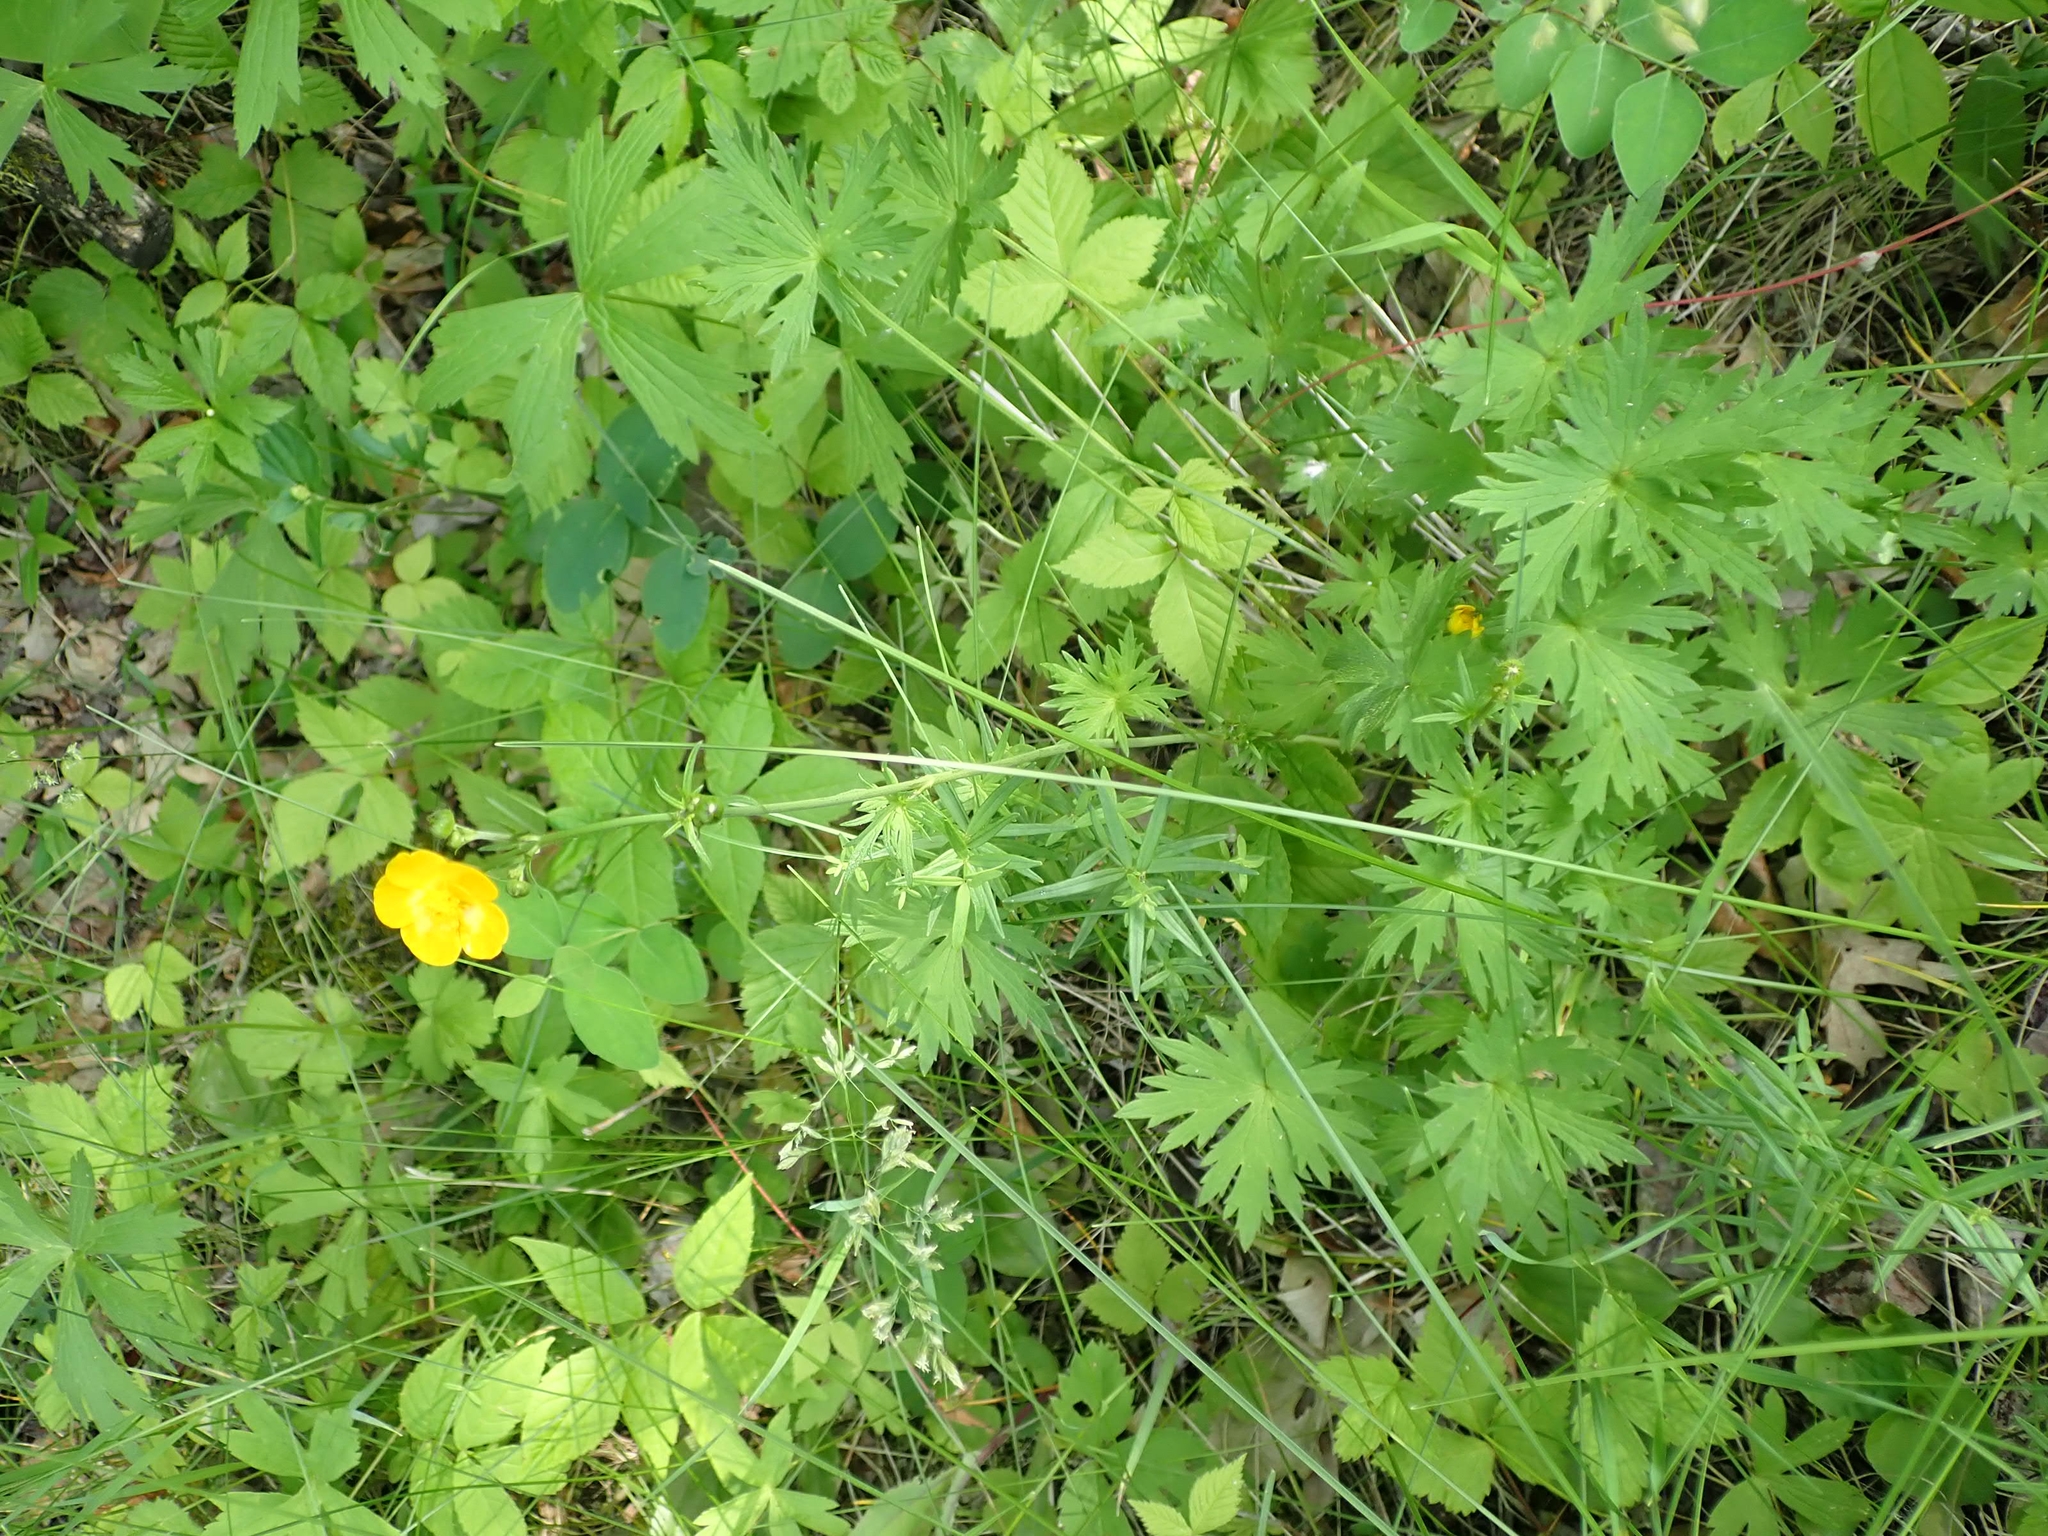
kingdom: Plantae
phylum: Tracheophyta
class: Magnoliopsida
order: Ranunculales
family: Ranunculaceae
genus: Ranunculus
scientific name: Ranunculus acris
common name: Meadow buttercup
